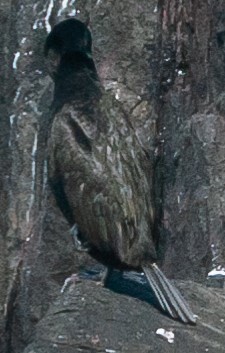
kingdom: Animalia
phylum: Chordata
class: Aves
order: Suliformes
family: Phalacrocoracidae
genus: Phalacrocorax
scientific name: Phalacrocorax aristotelis
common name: European shag
